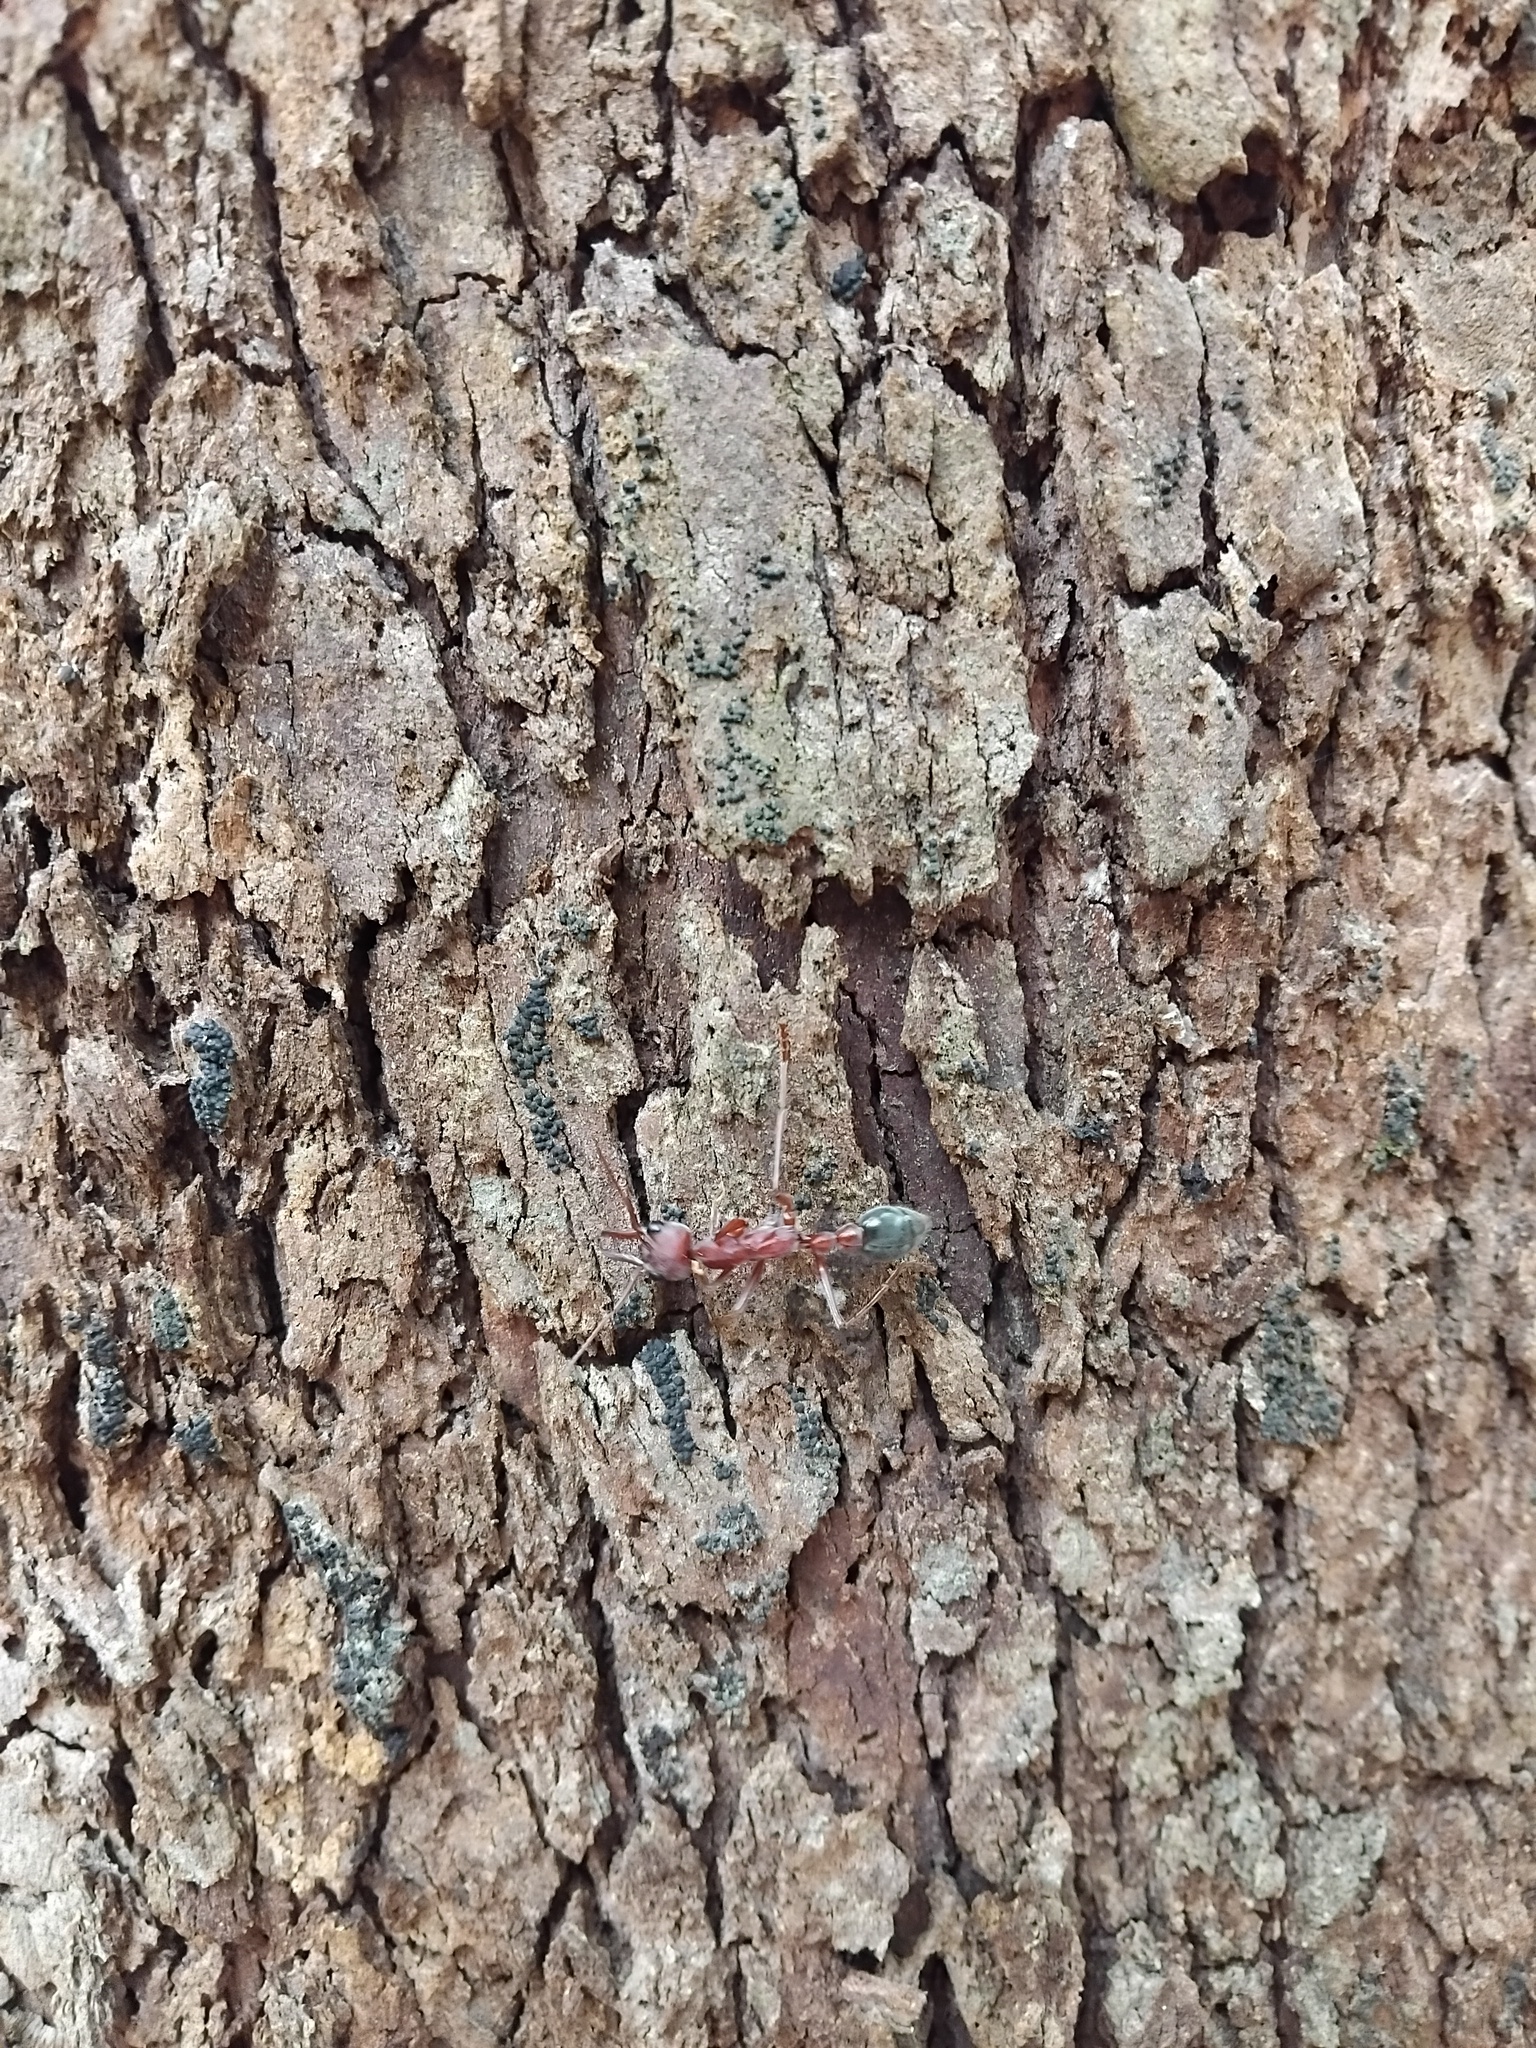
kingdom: Animalia
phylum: Arthropoda
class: Insecta
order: Hymenoptera
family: Formicidae
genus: Myrmecia
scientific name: Myrmecia brevinoda
